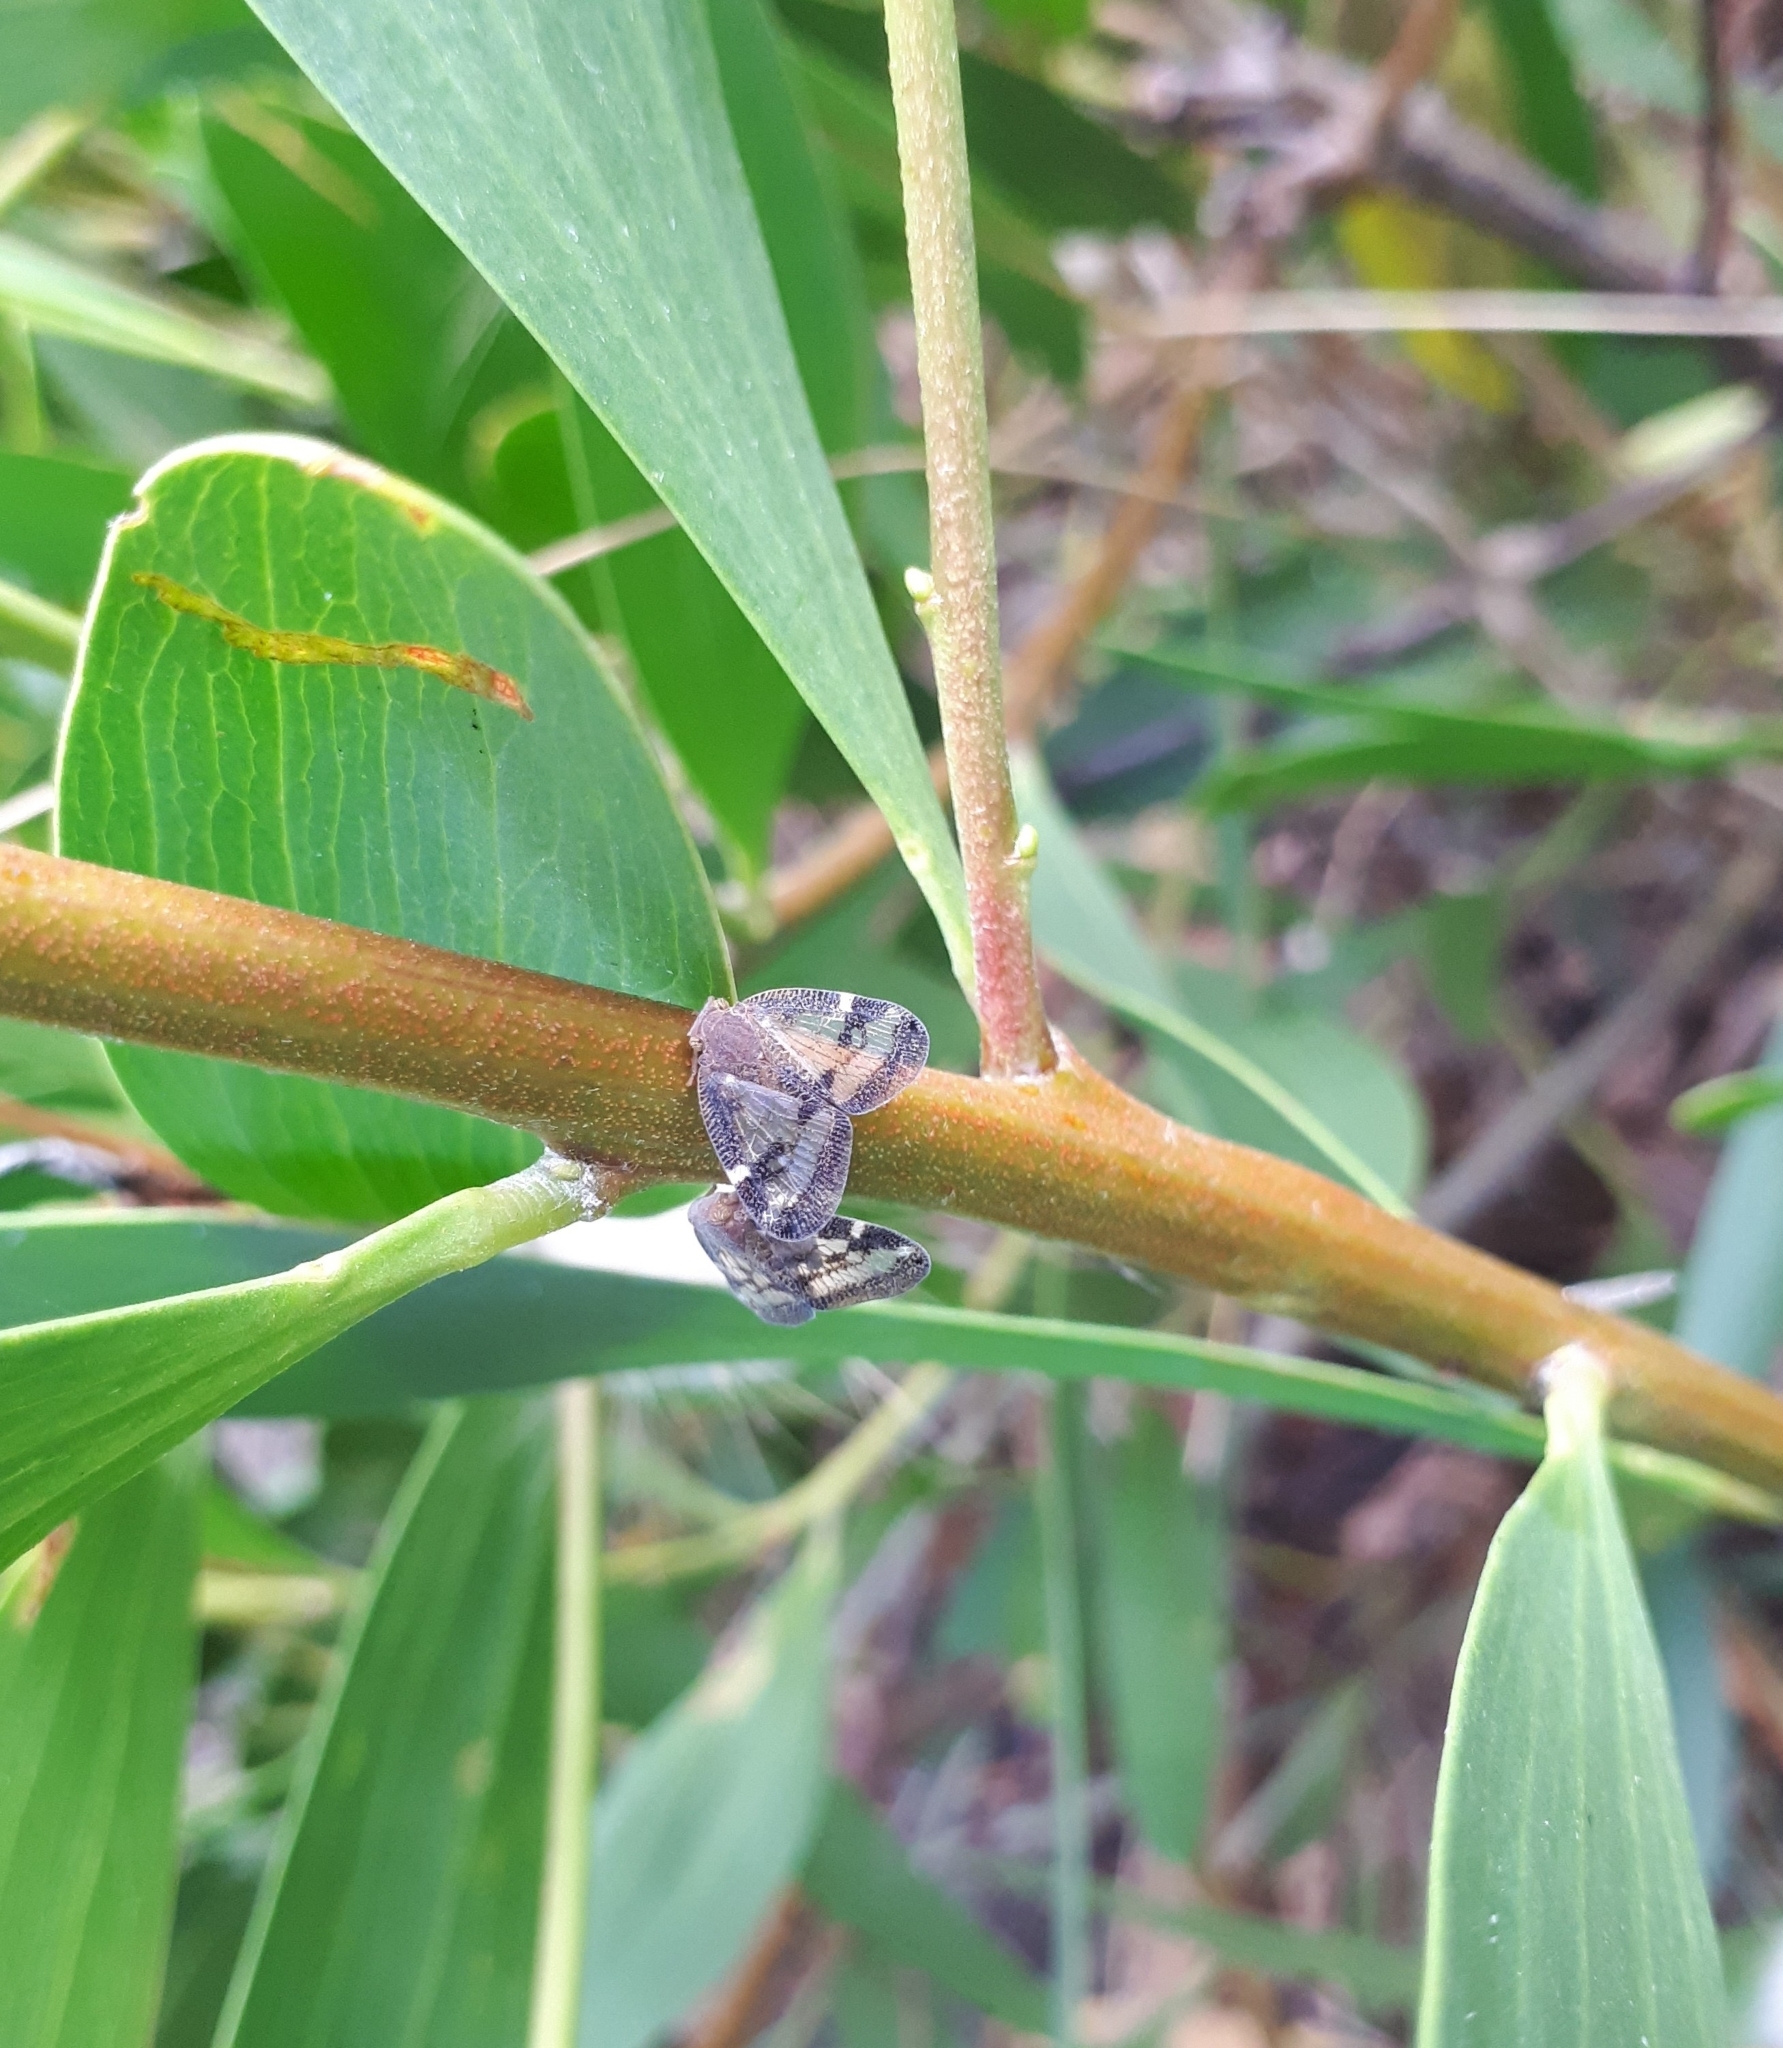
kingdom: Animalia
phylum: Arthropoda
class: Insecta
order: Hemiptera
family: Ricaniidae
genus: Scolypopa
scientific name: Scolypopa australis
